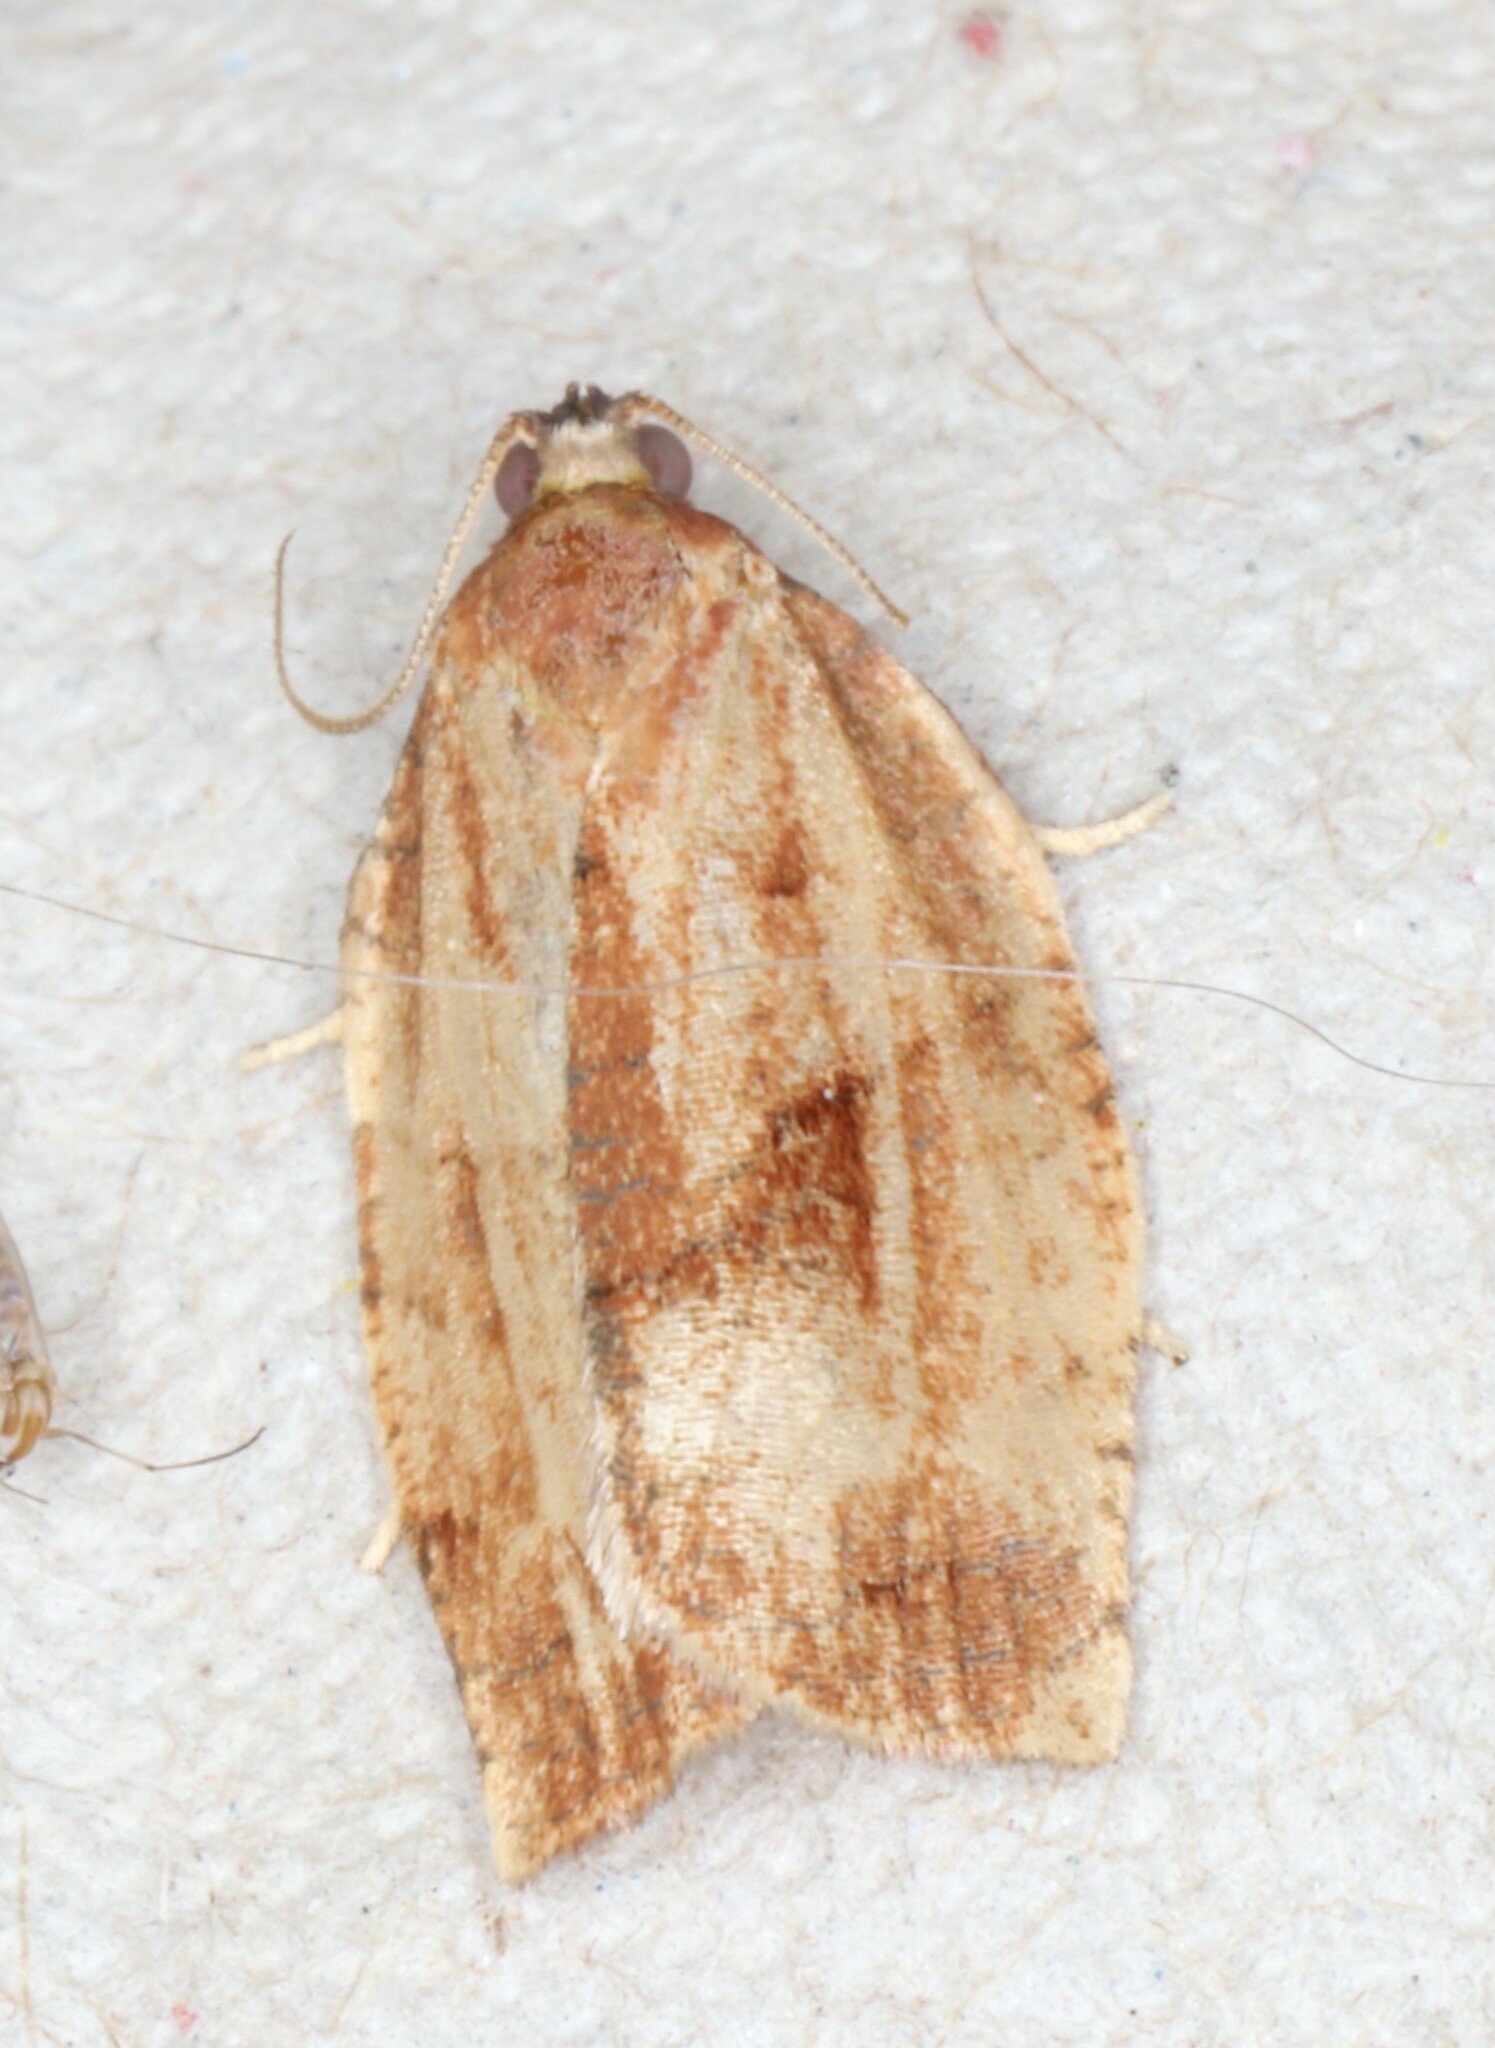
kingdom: Animalia
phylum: Arthropoda
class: Insecta
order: Lepidoptera
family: Tortricidae
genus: Choristoneura
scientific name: Choristoneura rosaceana
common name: Oblique-banded leafroller moth
